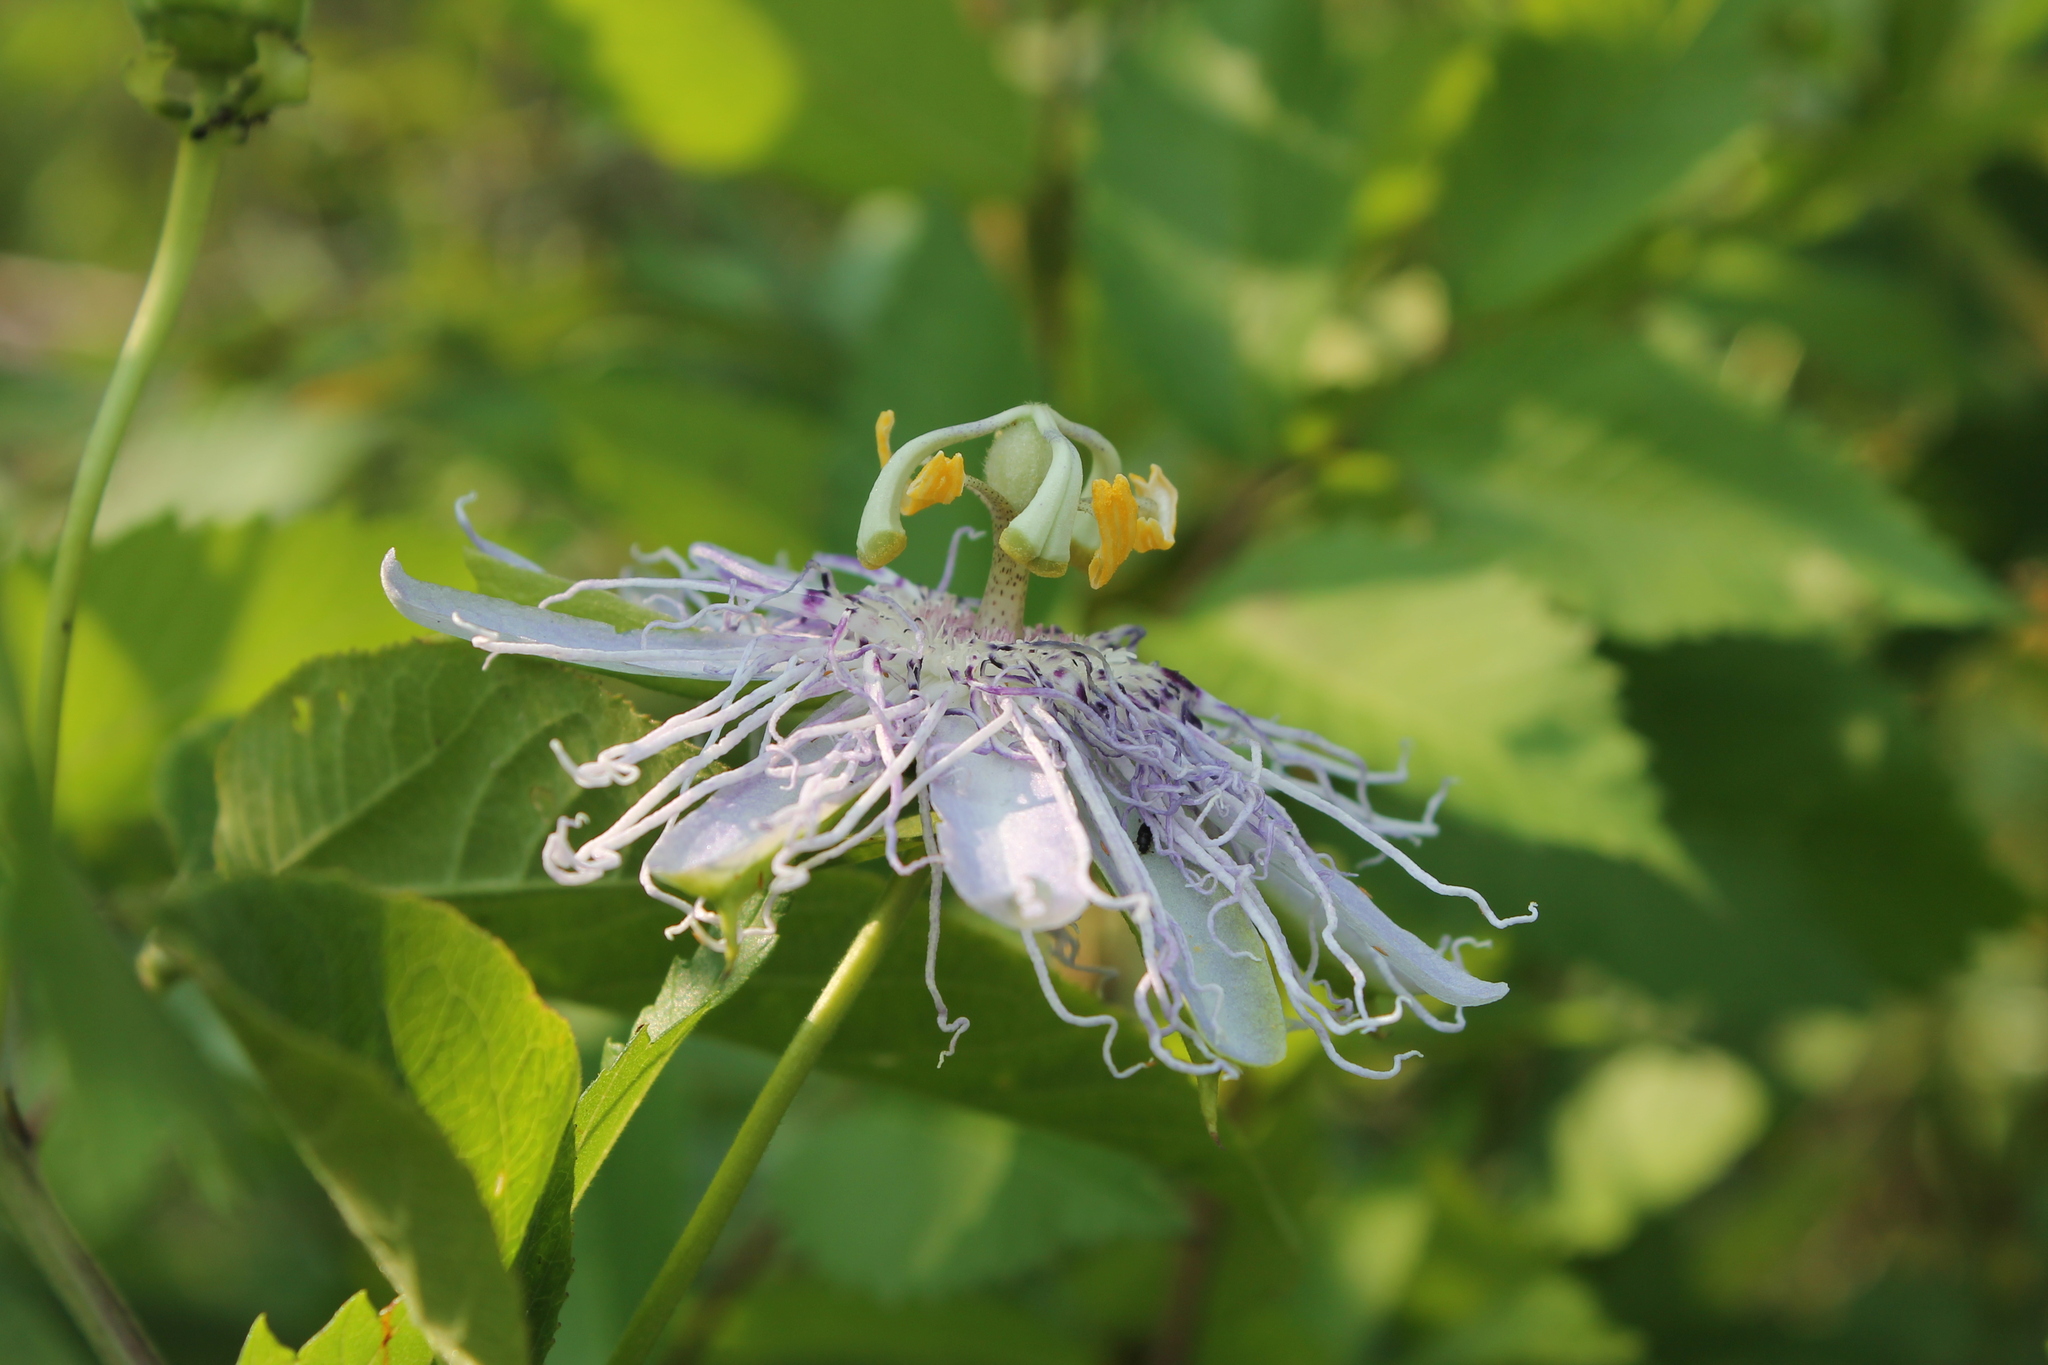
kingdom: Plantae
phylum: Tracheophyta
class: Magnoliopsida
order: Malpighiales
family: Passifloraceae
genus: Passiflora
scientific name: Passiflora incarnata
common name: Apricot-vine
